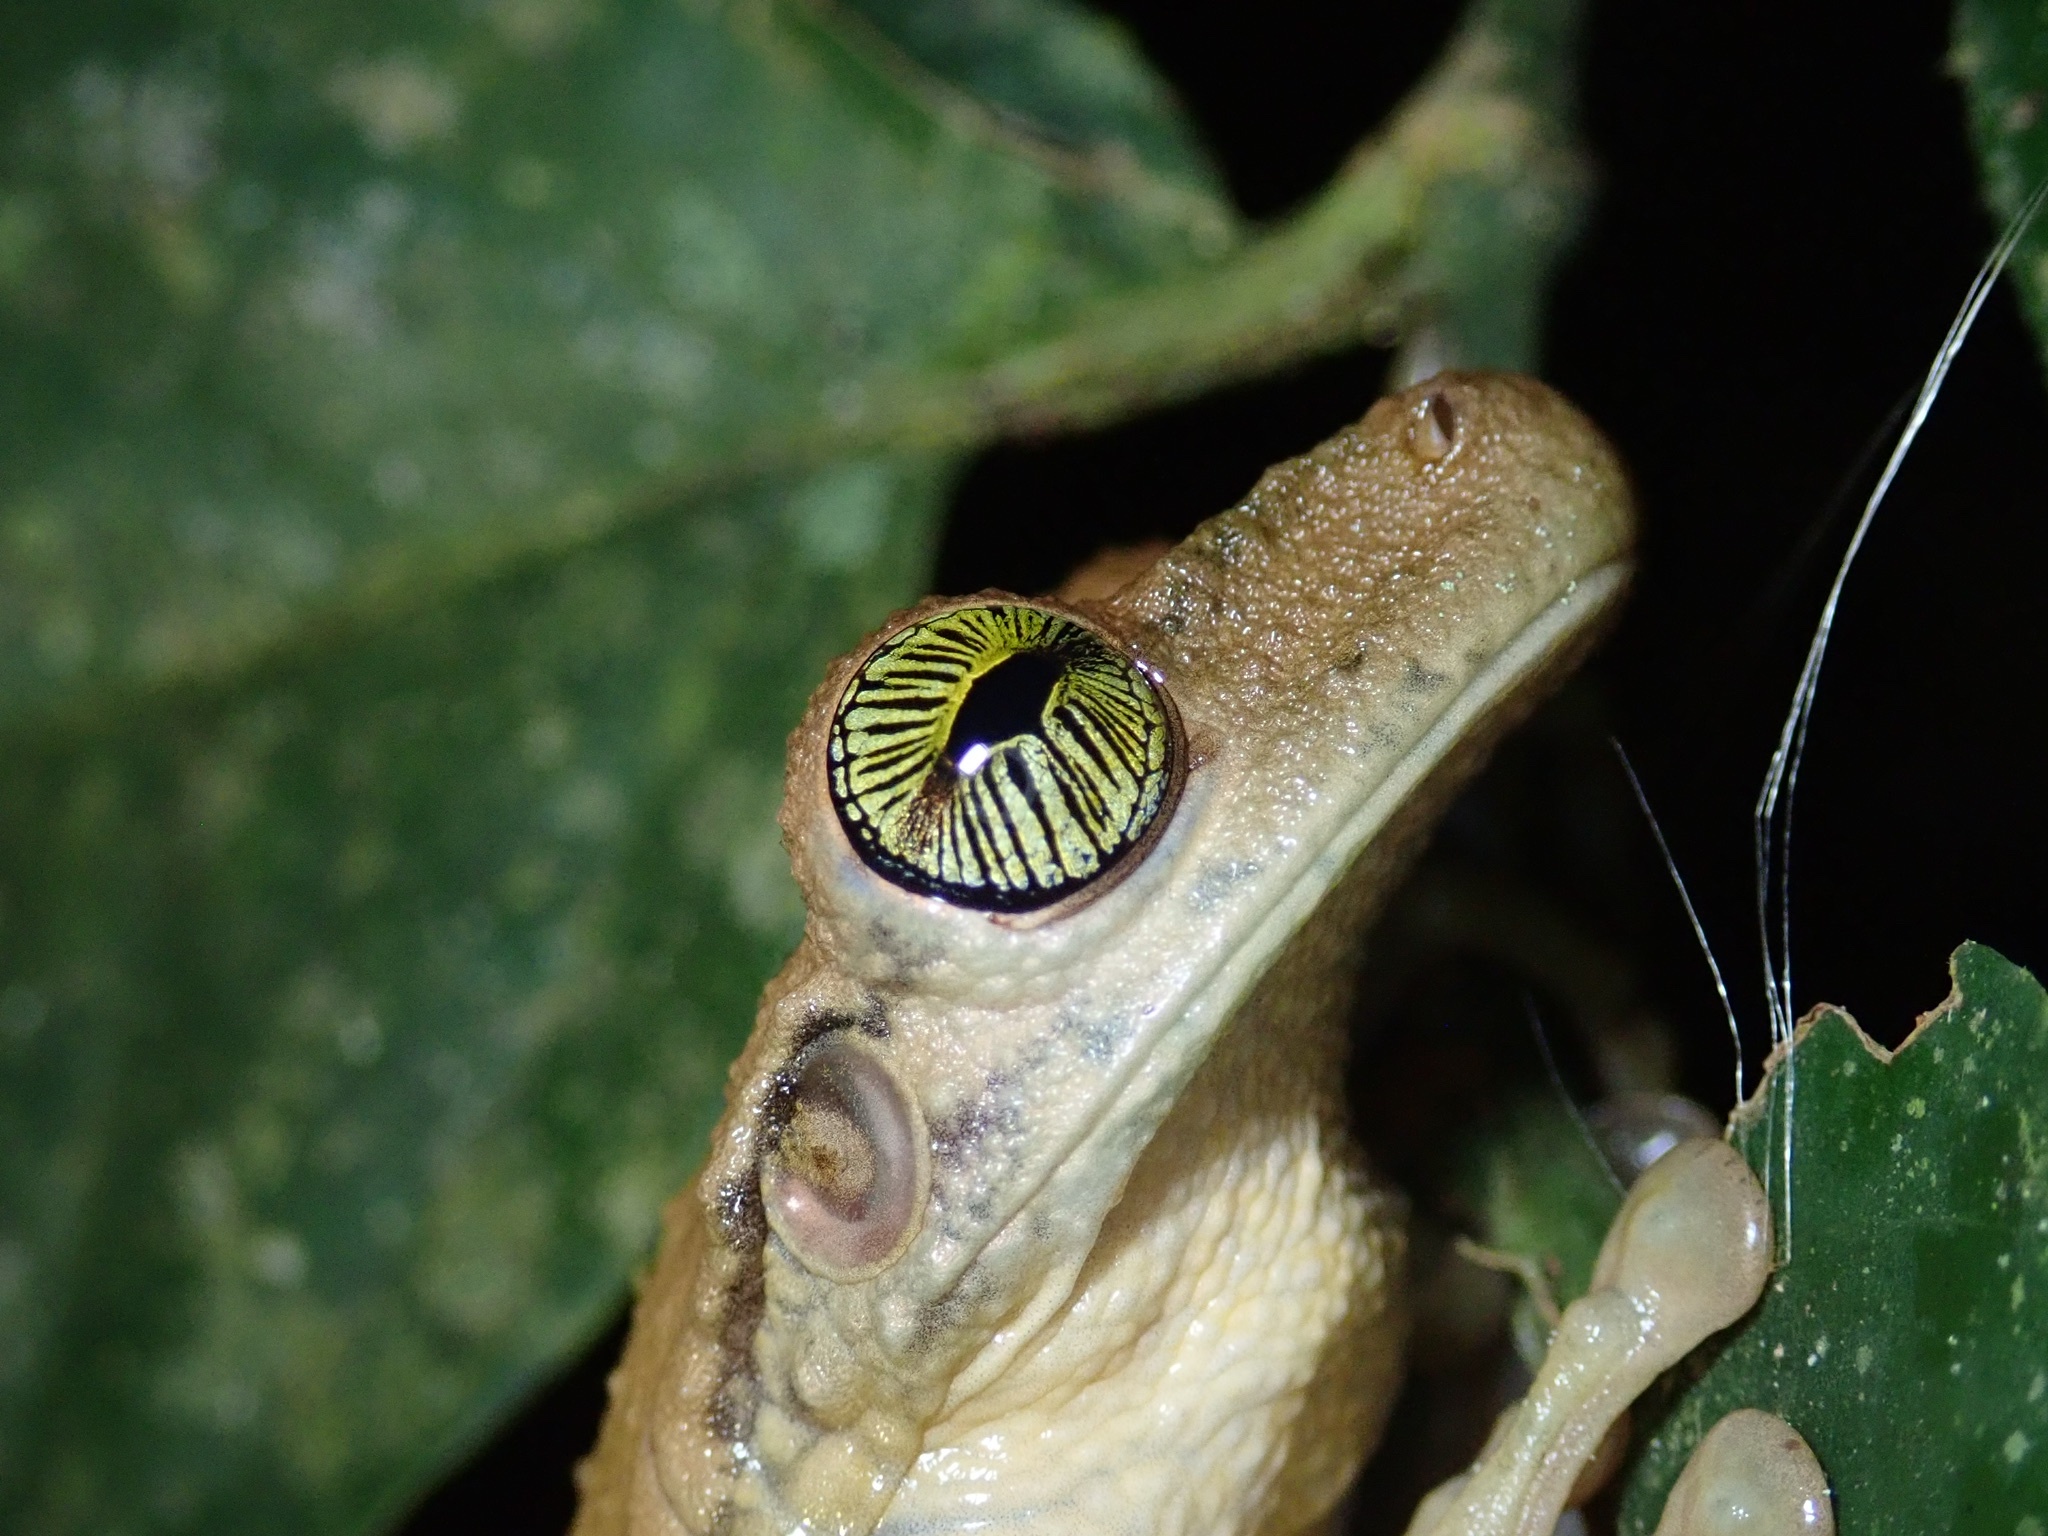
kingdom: Animalia
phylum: Chordata
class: Amphibia
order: Anura
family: Hylidae
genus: Osteocephalus
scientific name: Osteocephalus taurinus
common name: Manaus slender-legged treefrog
